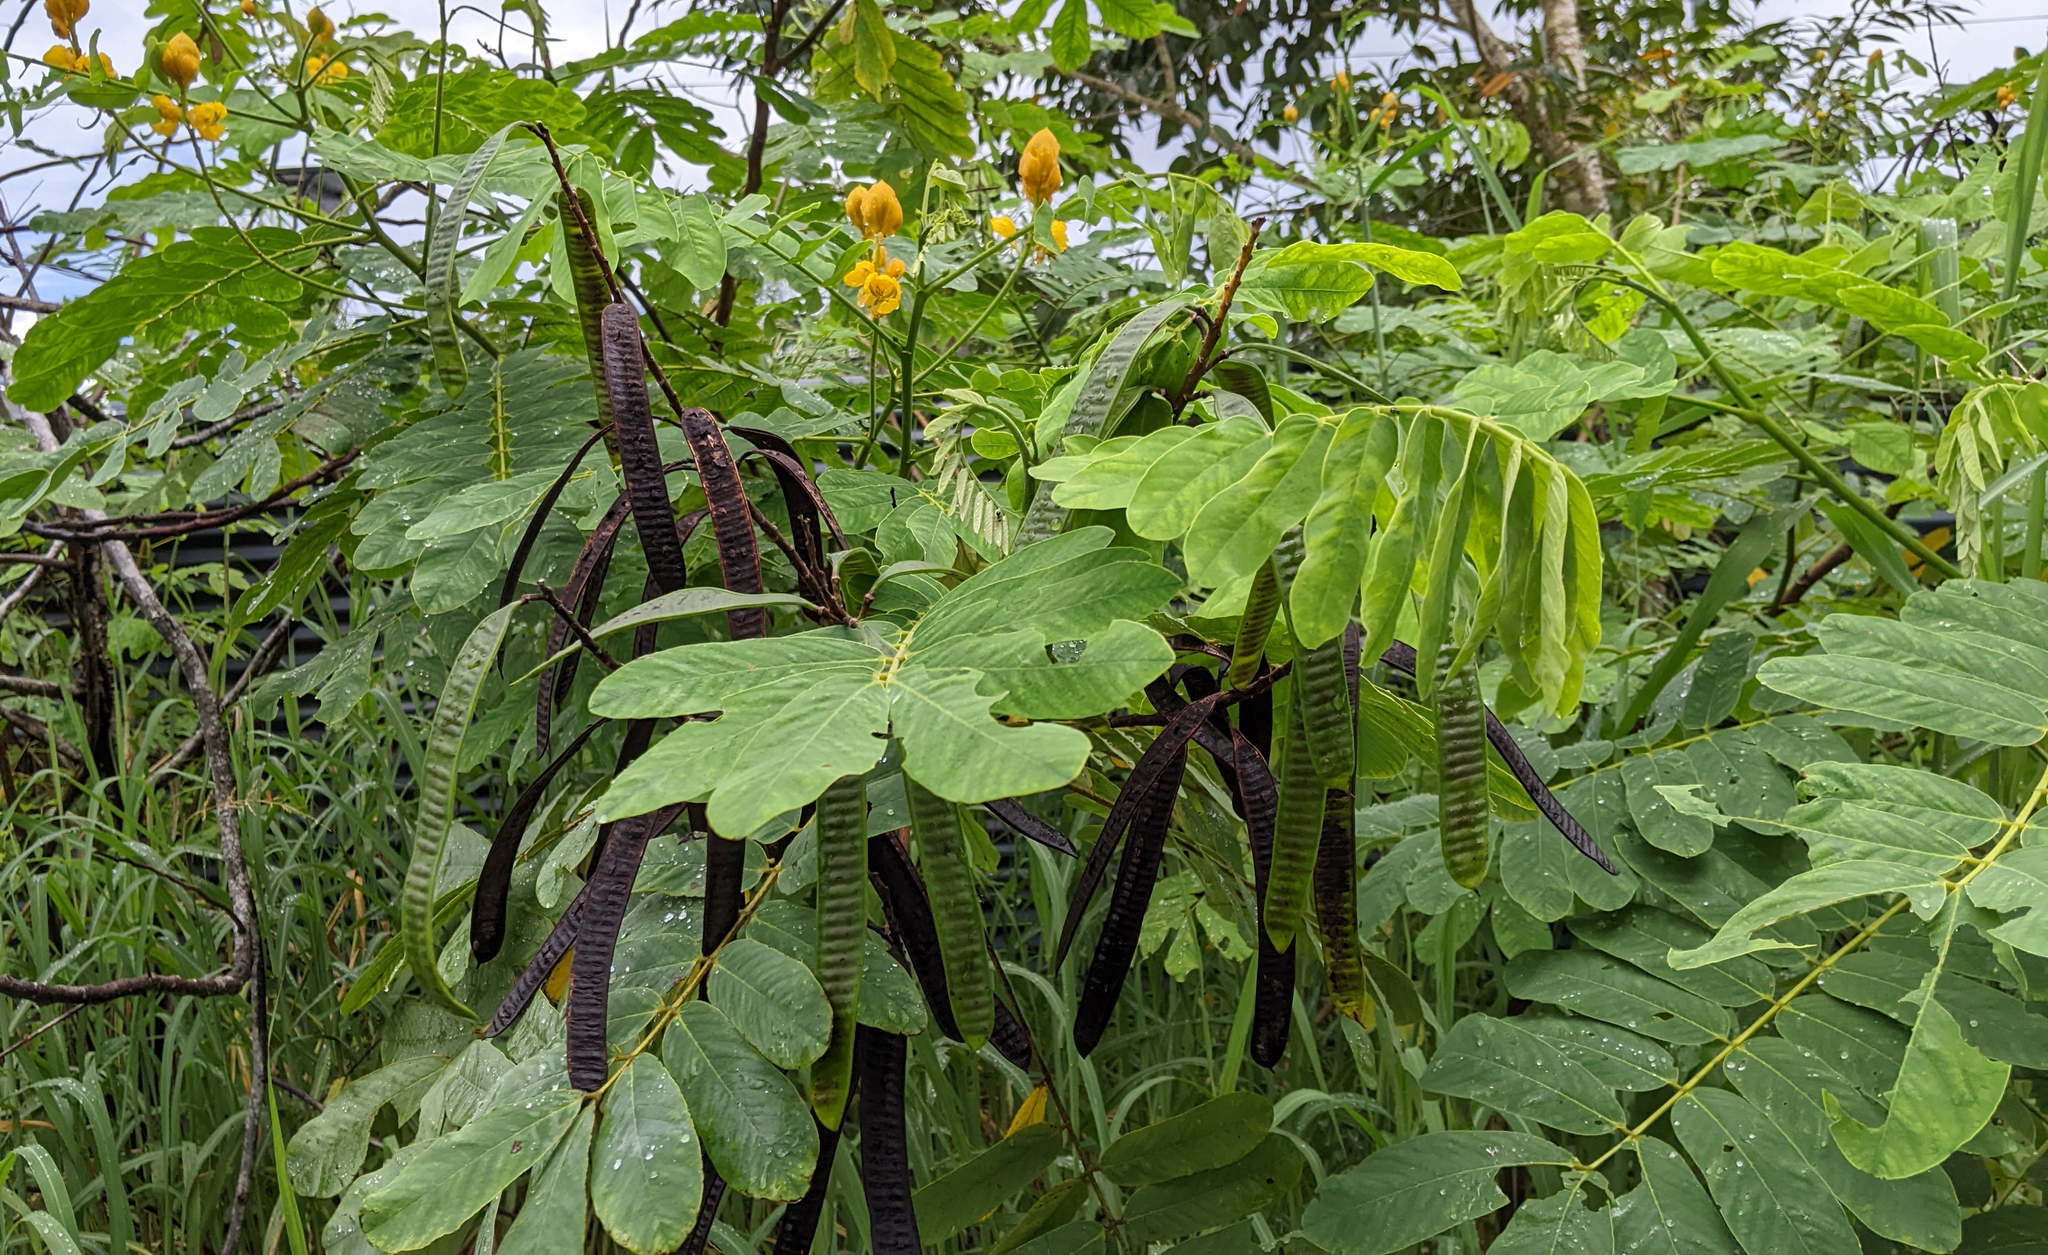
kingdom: Plantae
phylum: Tracheophyta
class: Magnoliopsida
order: Fabales
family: Fabaceae
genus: Senna
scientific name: Senna reticulata
